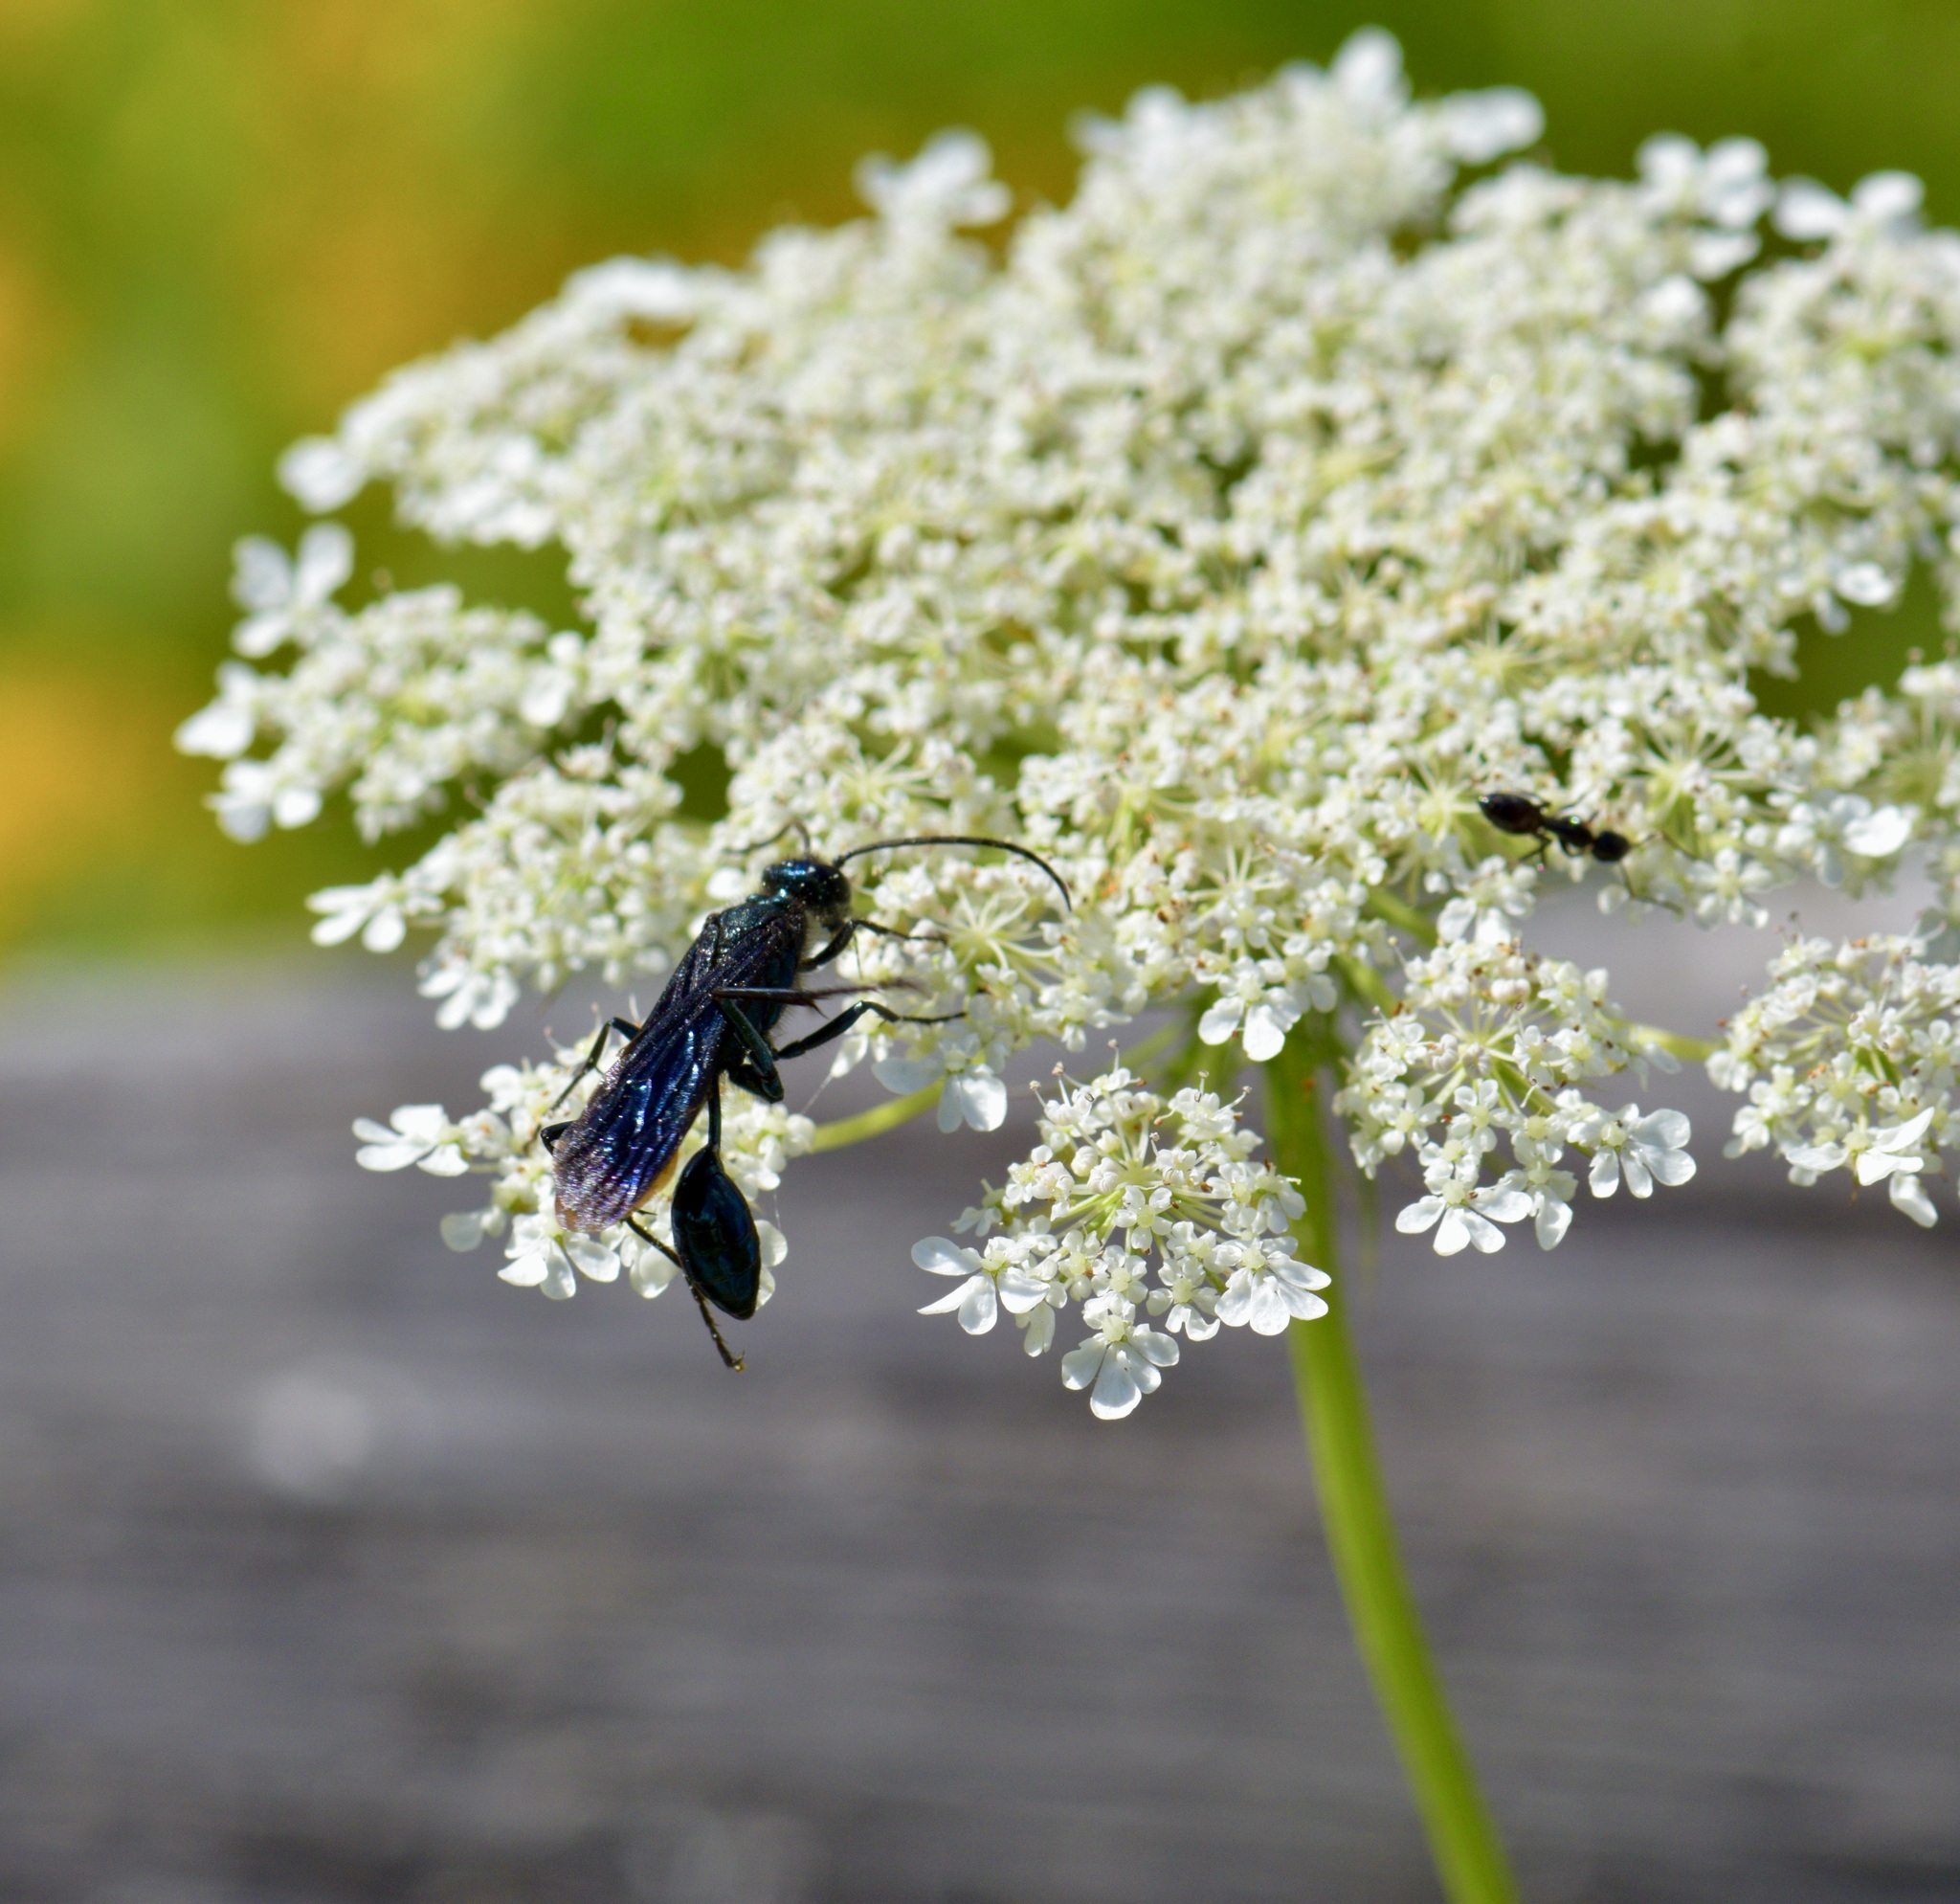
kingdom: Animalia
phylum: Arthropoda
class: Insecta
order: Hymenoptera
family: Sphecidae
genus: Chalybion
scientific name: Chalybion californicum
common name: Mud dauber
